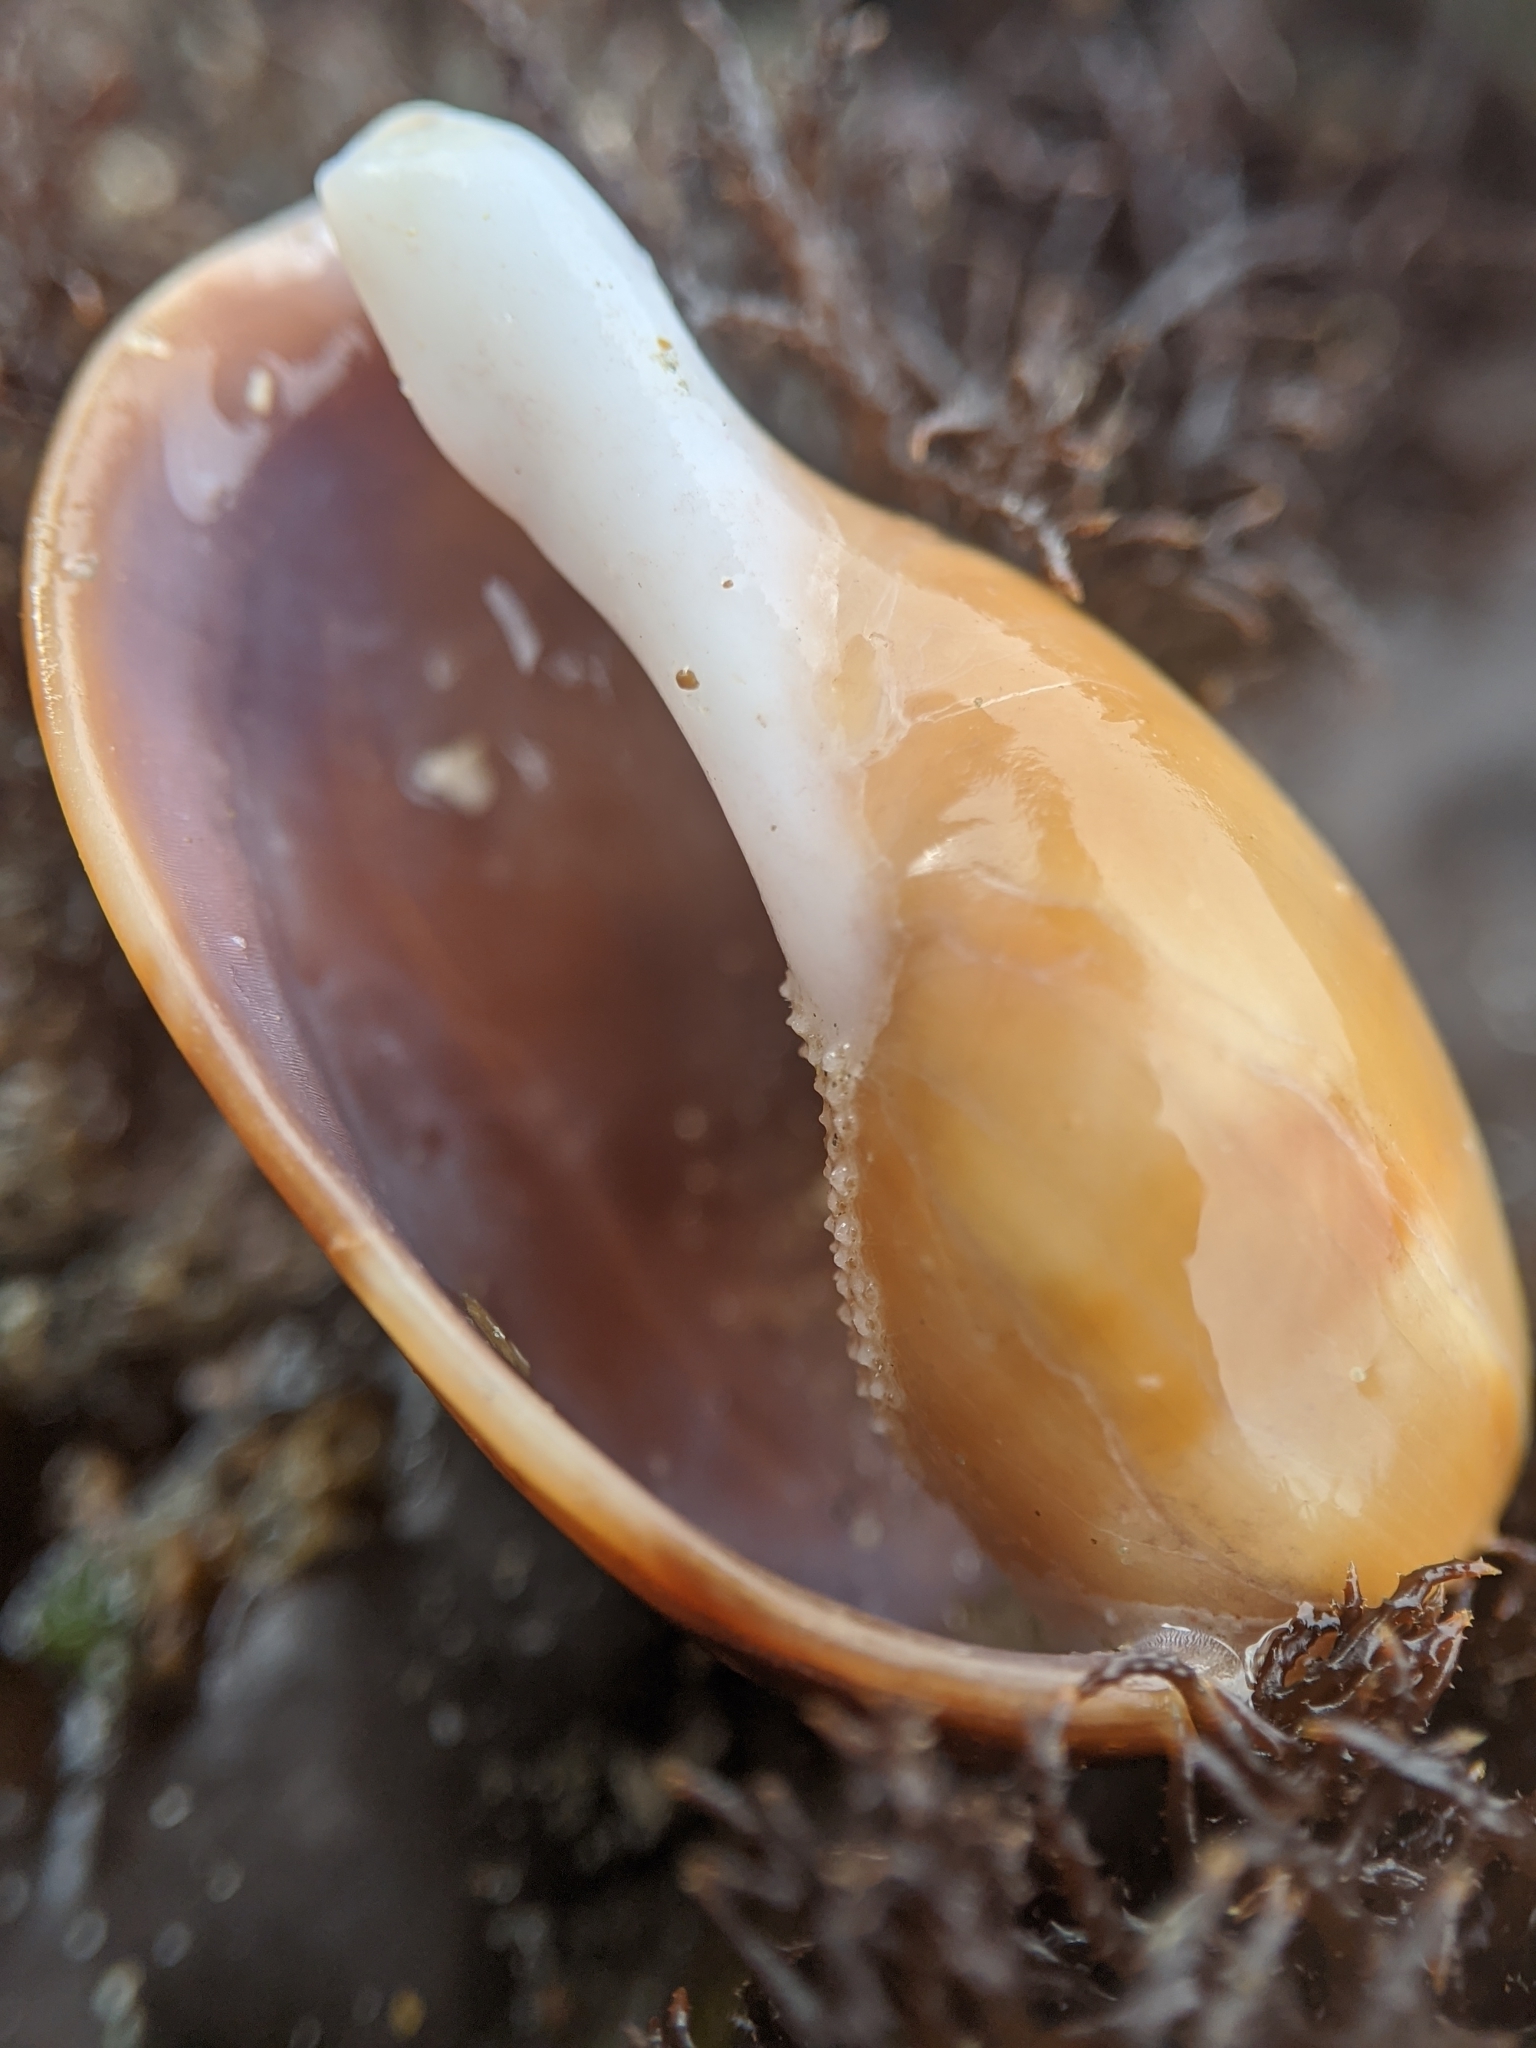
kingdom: Animalia
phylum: Mollusca
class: Gastropoda
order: Littorinimorpha
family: Cypraeidae
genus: Neobernaya
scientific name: Neobernaya spadicea
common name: Chestnut cowrie
